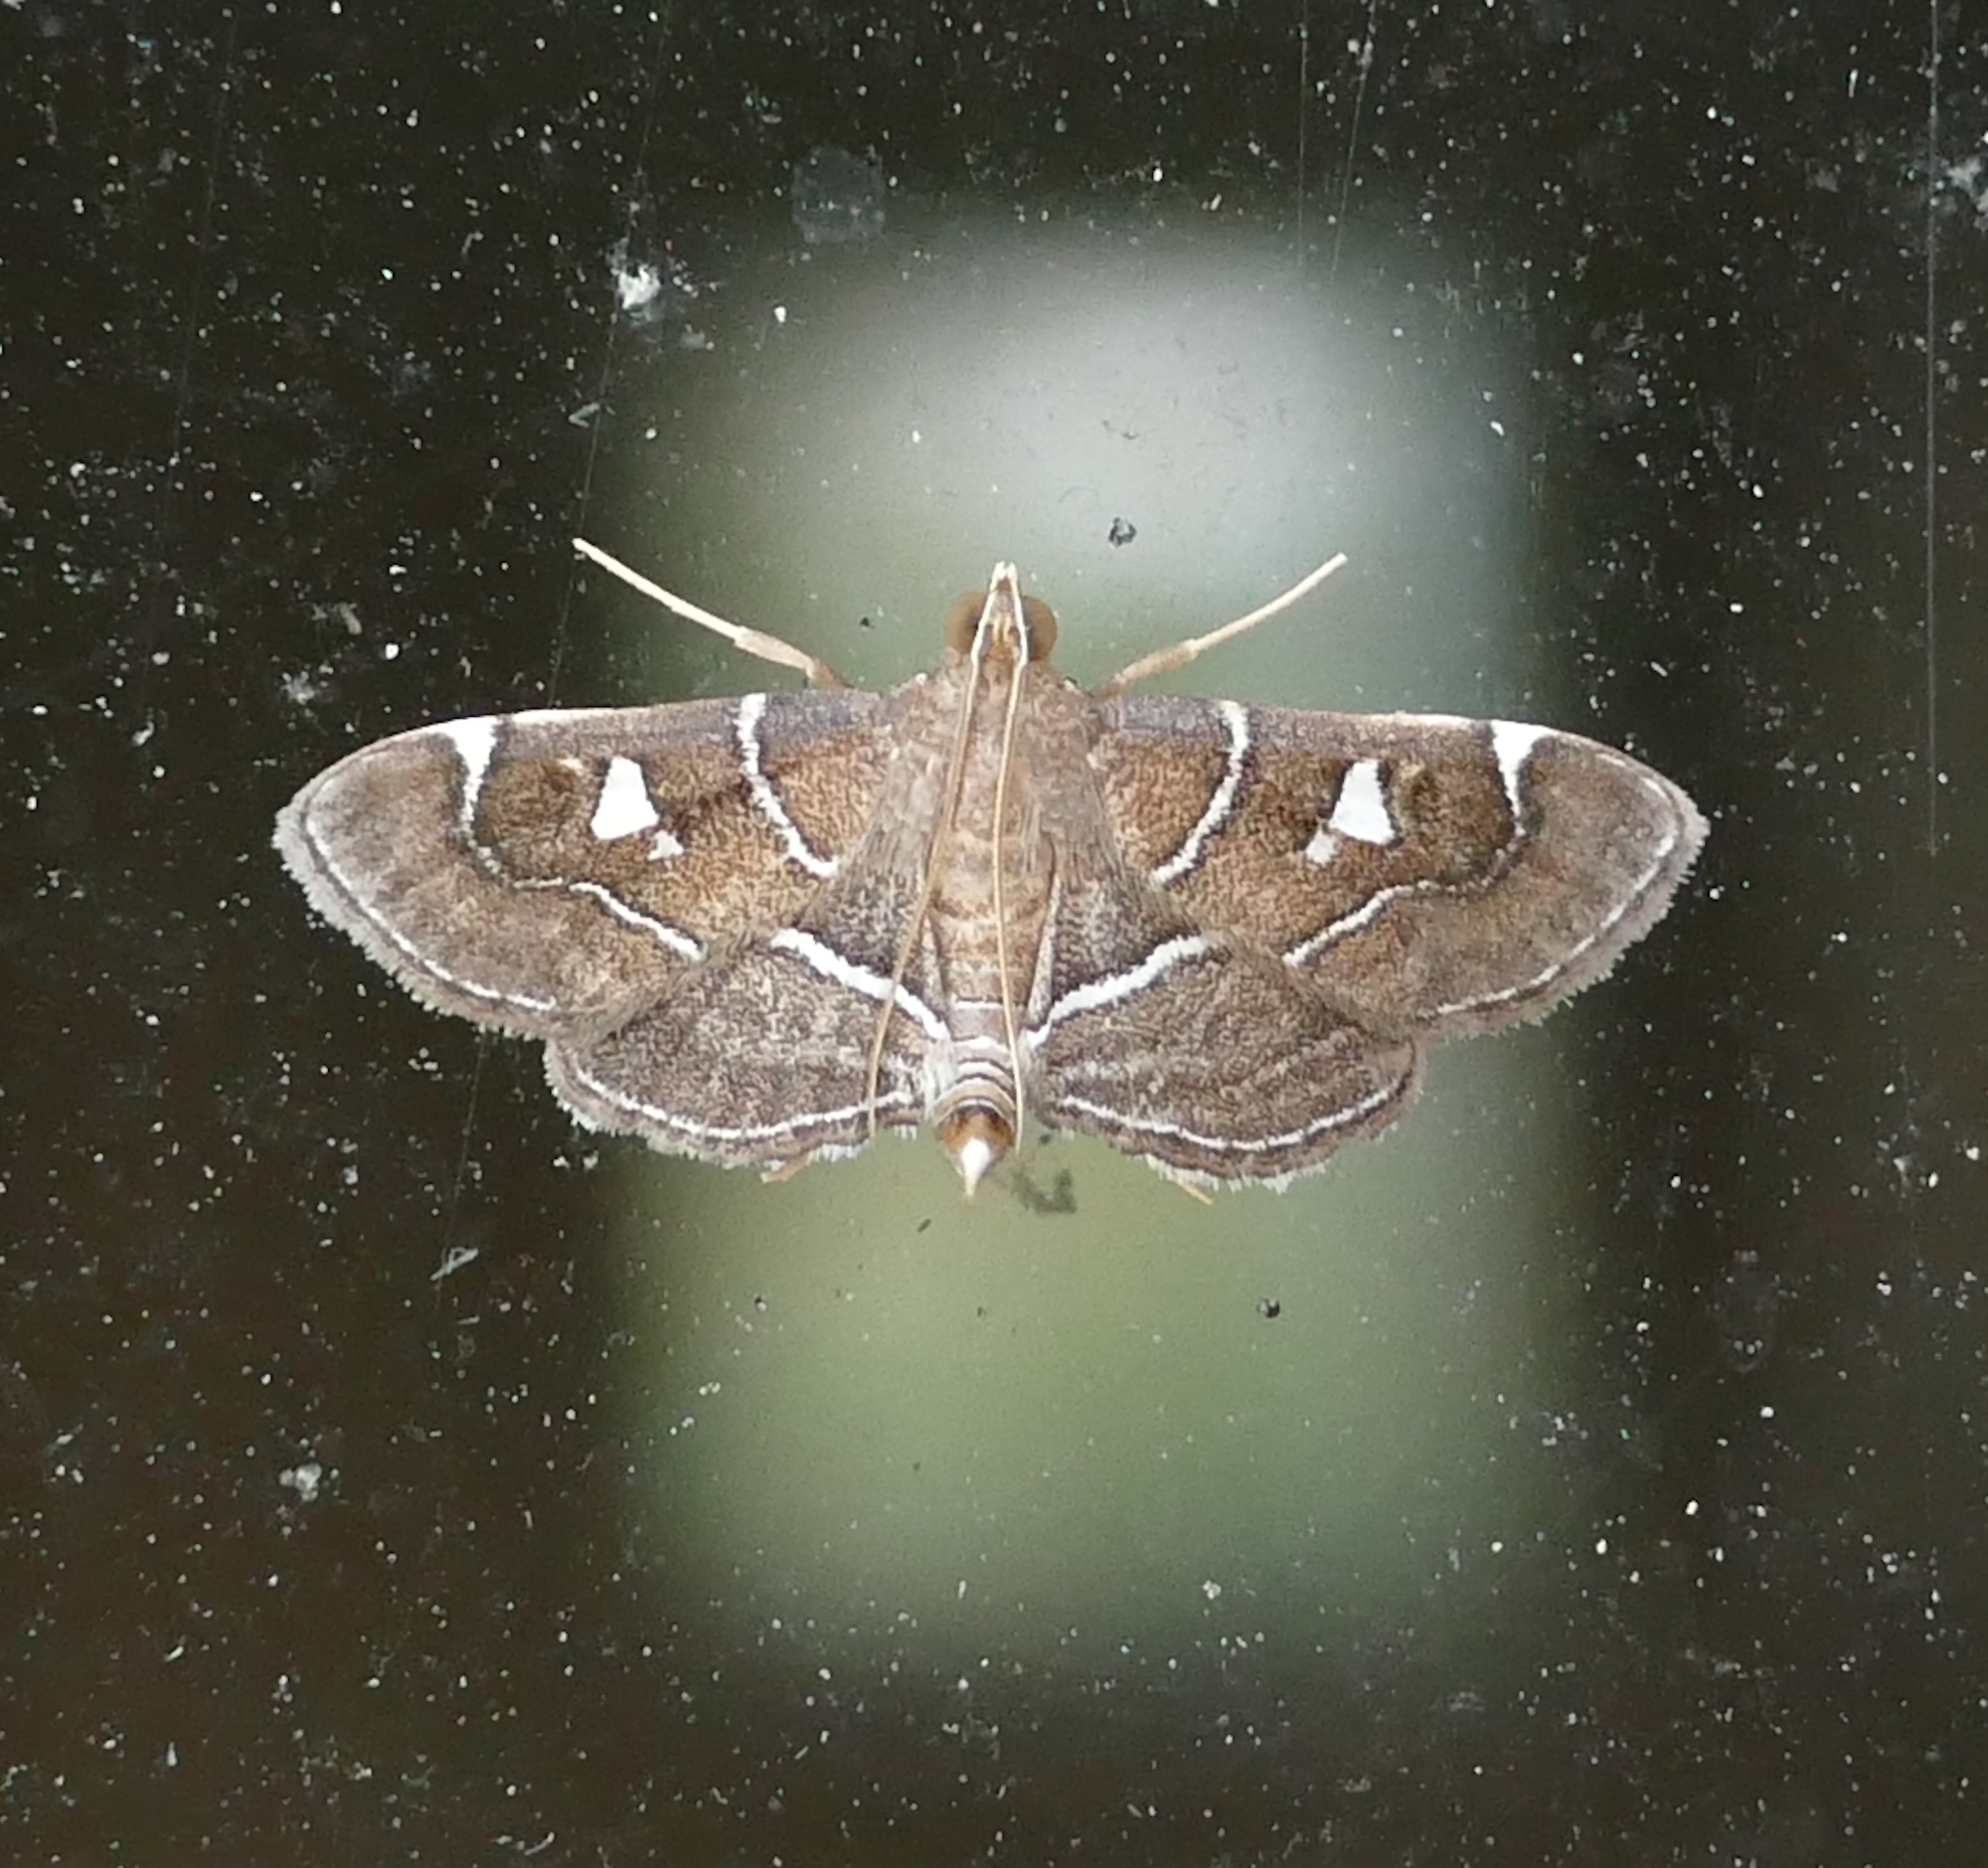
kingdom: Animalia
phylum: Arthropoda
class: Insecta
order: Lepidoptera
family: Crambidae
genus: Lamprosema
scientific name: Lamprosema victoriae
